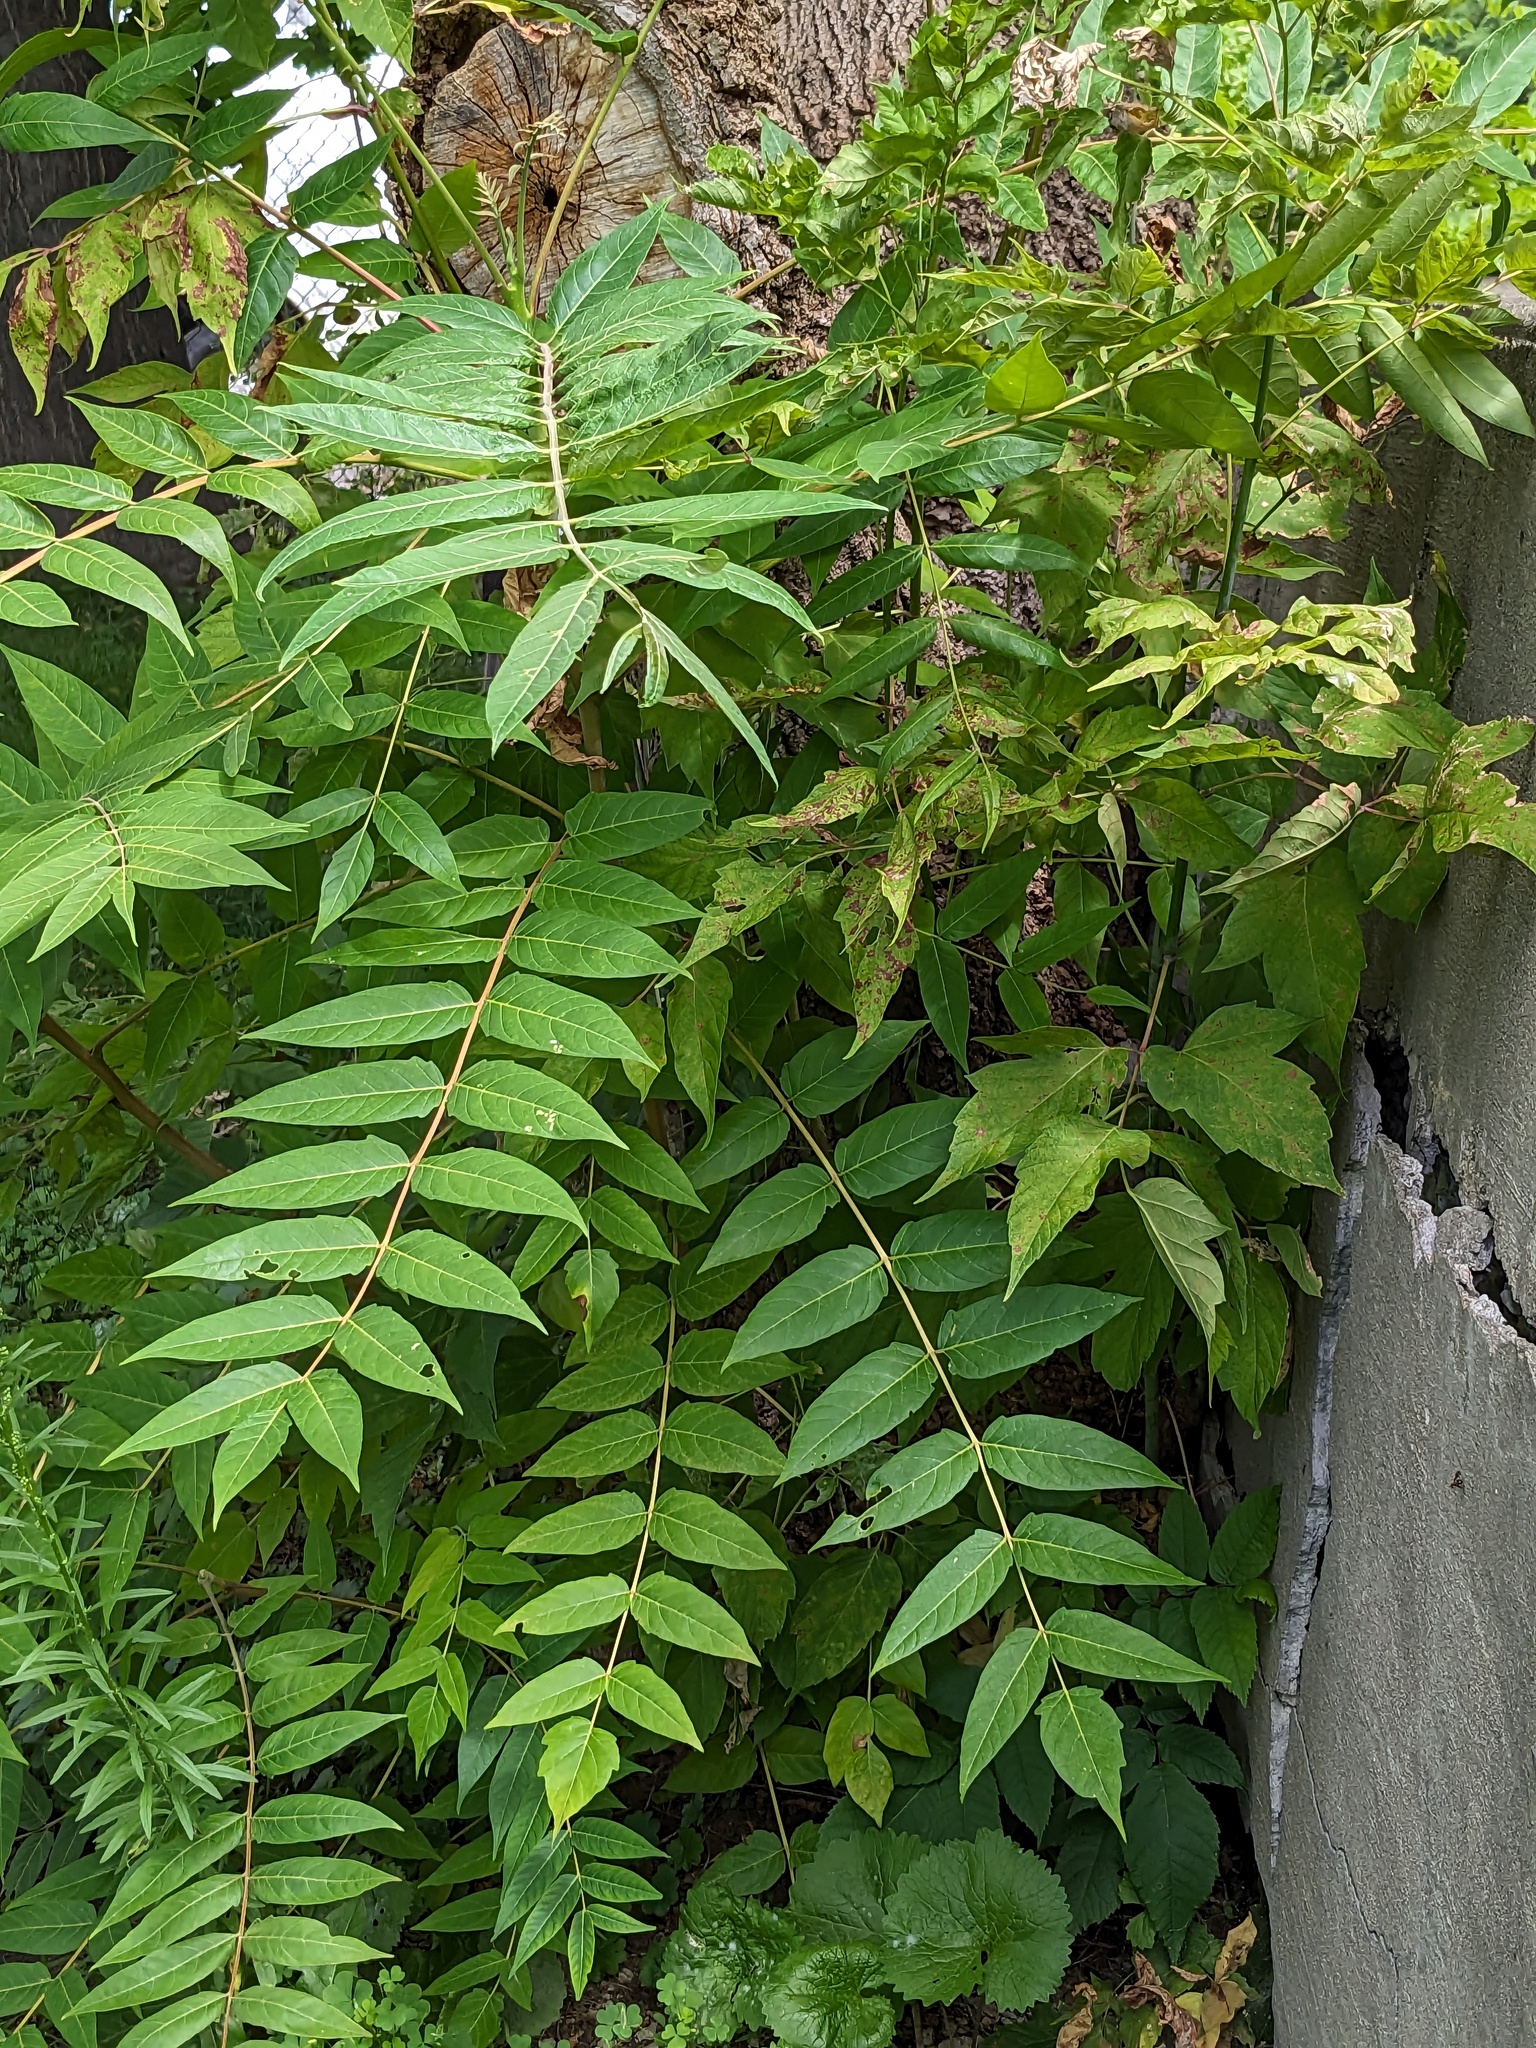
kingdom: Plantae
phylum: Tracheophyta
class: Magnoliopsida
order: Sapindales
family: Simaroubaceae
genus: Ailanthus
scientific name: Ailanthus altissima
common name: Tree-of-heaven
